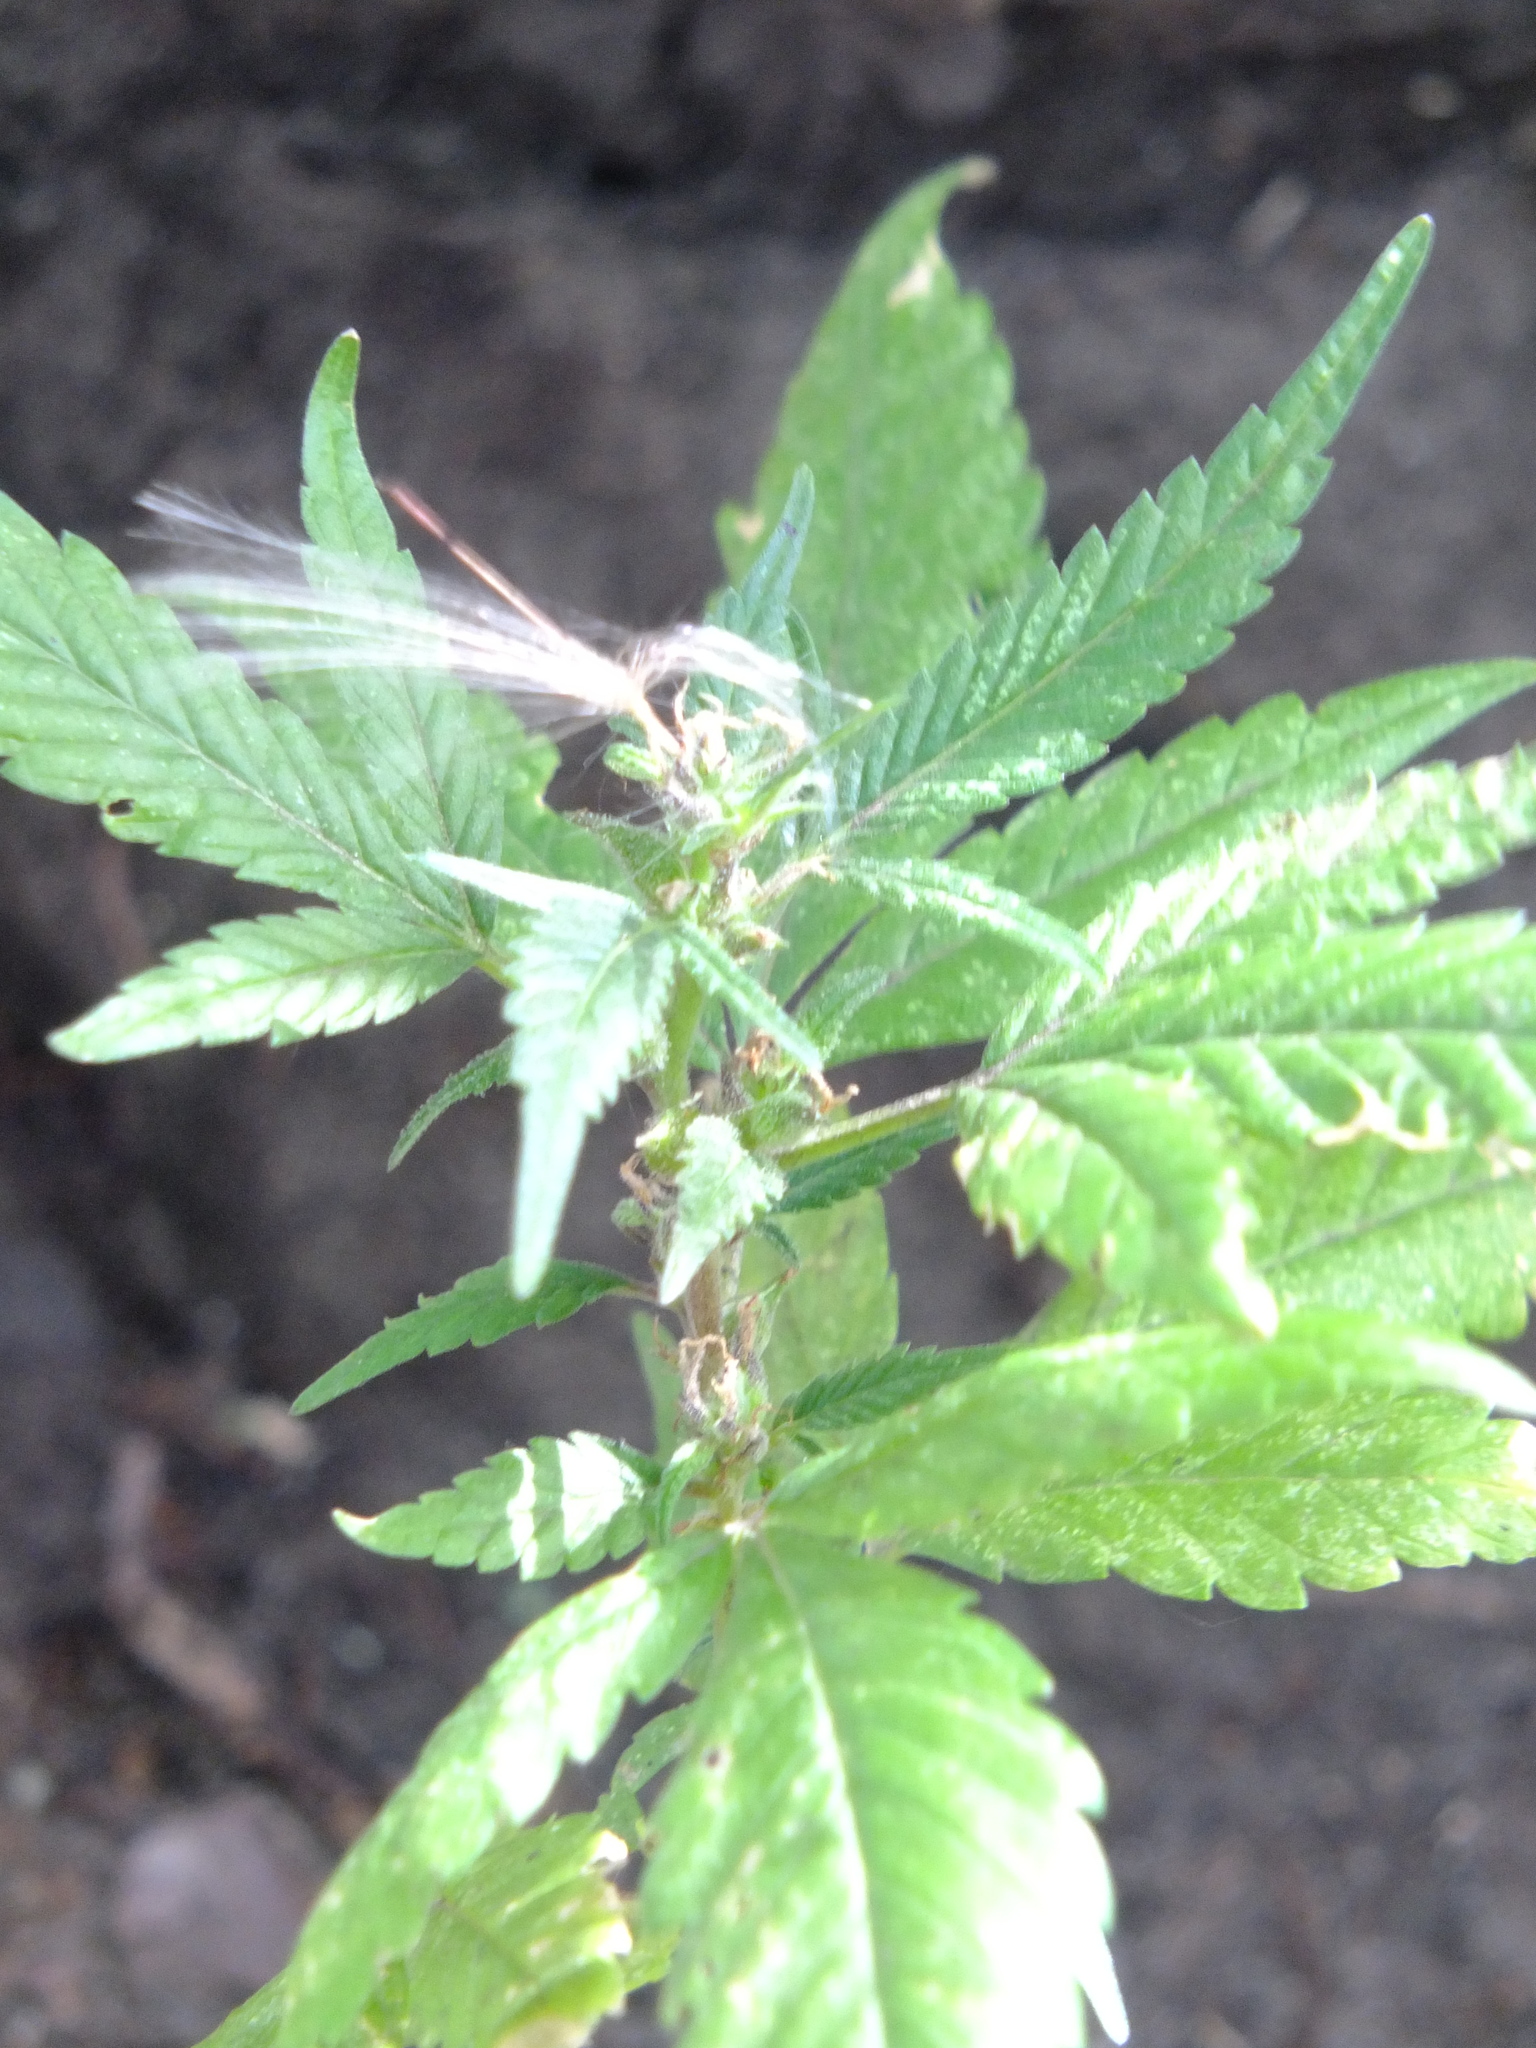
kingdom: Plantae
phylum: Tracheophyta
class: Magnoliopsida
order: Rosales
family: Cannabaceae
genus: Cannabis
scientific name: Cannabis sativa
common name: Hemp
